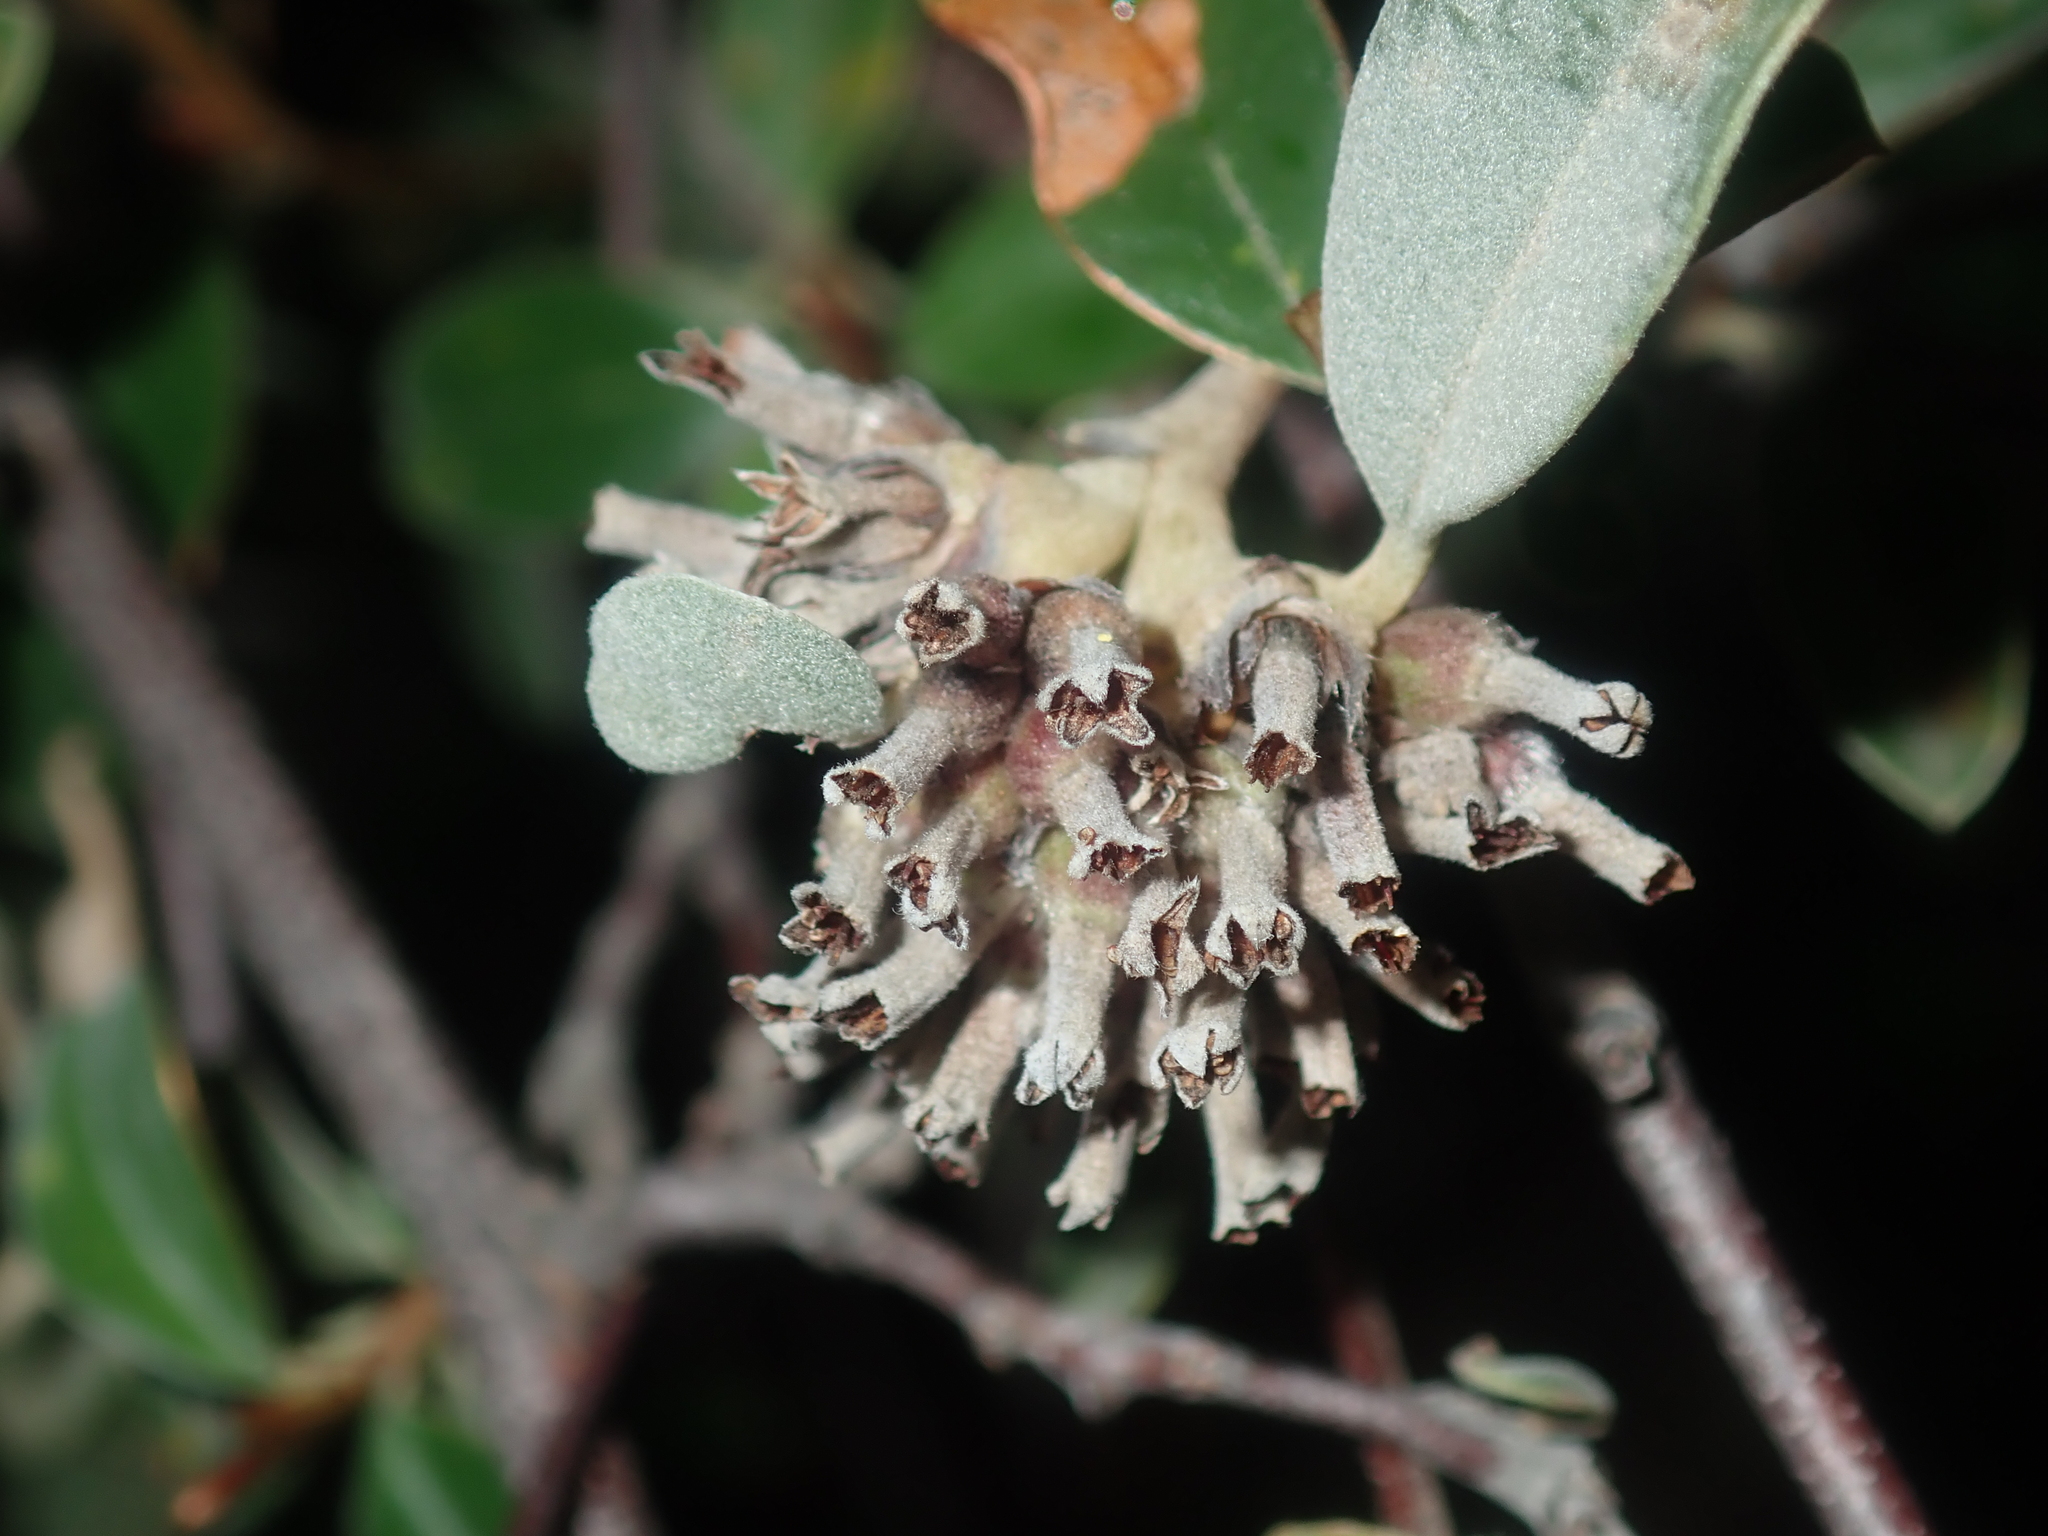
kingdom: Plantae
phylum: Tracheophyta
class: Magnoliopsida
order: Rosales
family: Rhamnaceae
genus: Stenanthemum
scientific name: Stenanthemum pomaderroides
